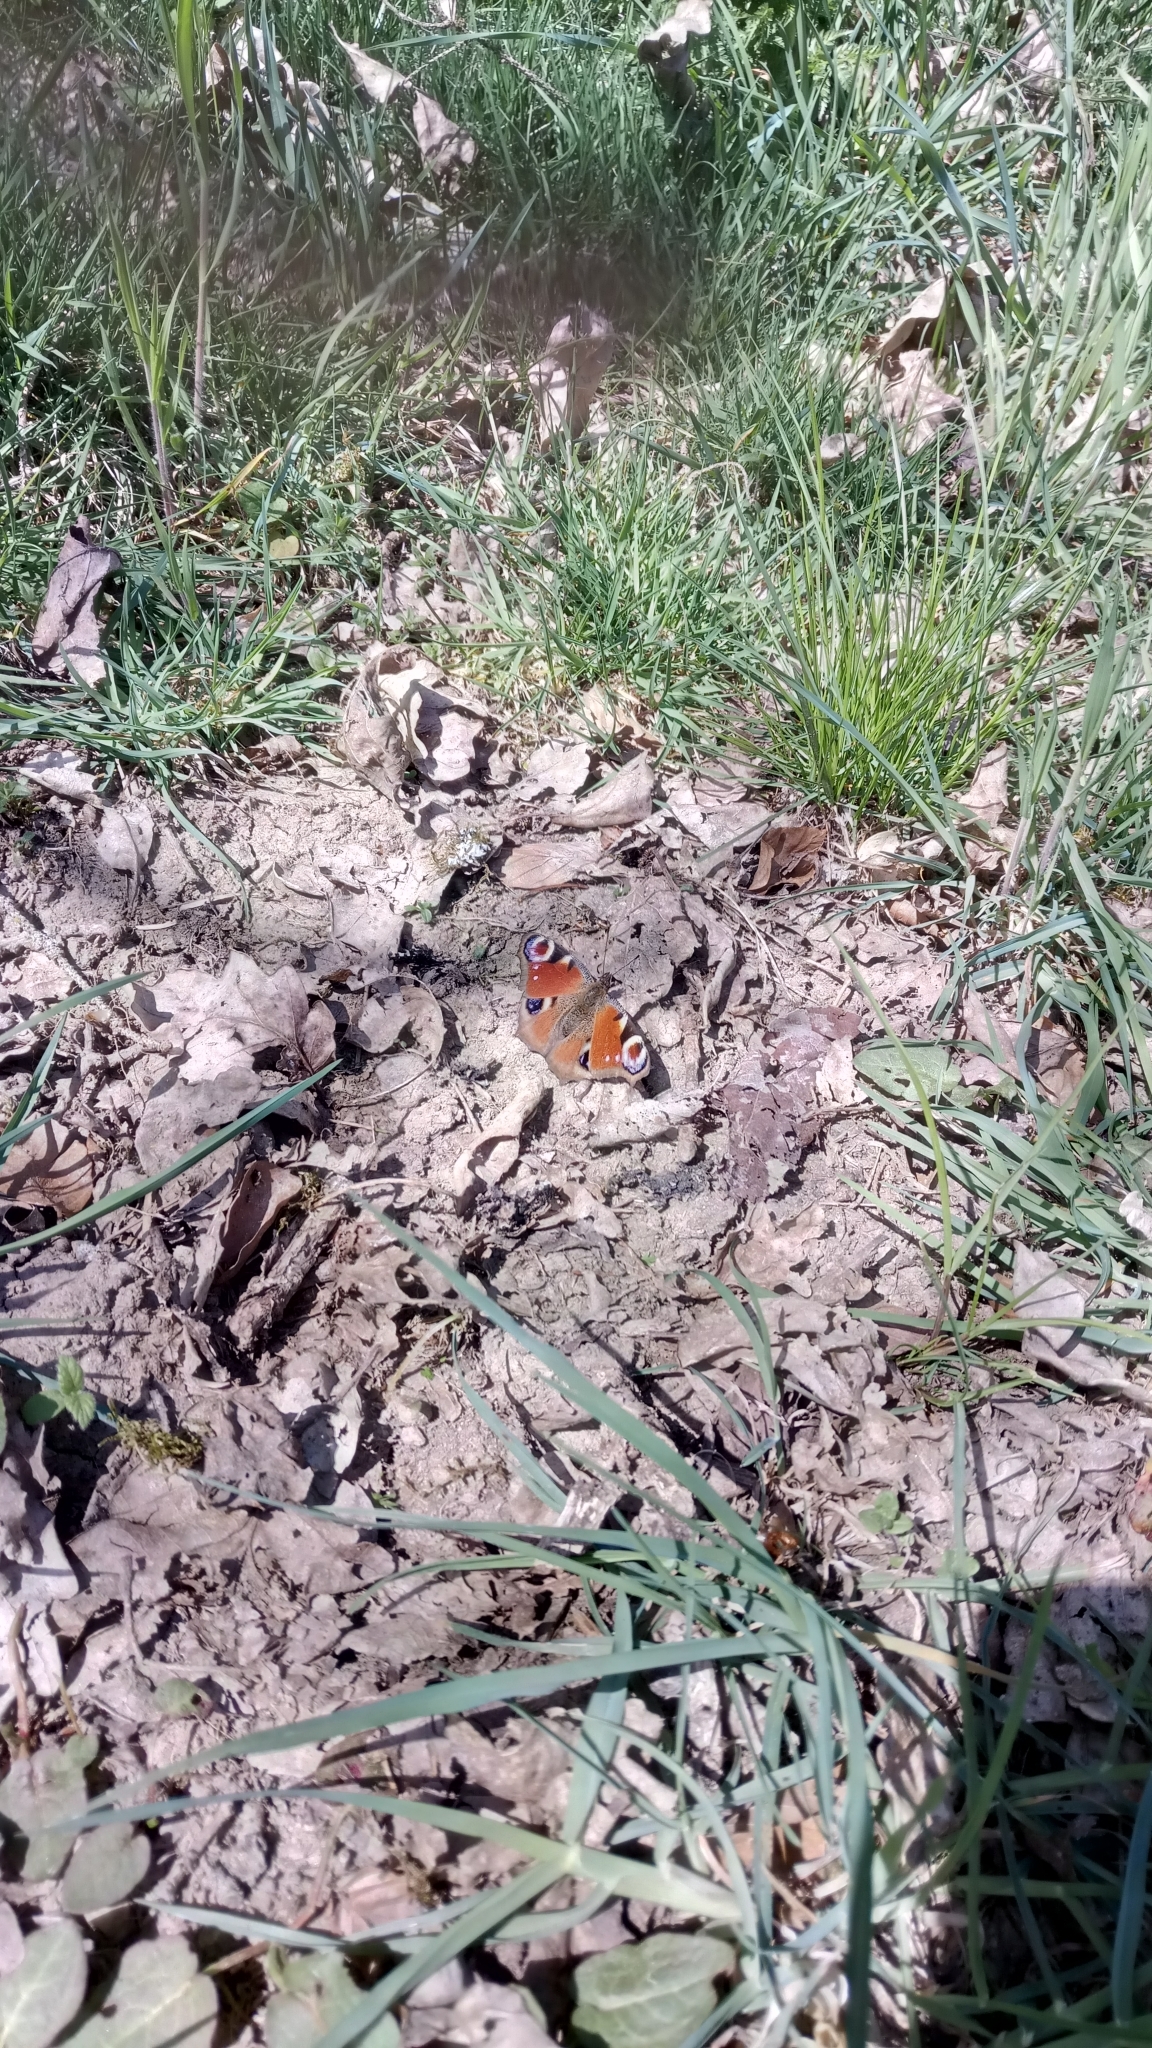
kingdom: Animalia
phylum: Arthropoda
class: Insecta
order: Lepidoptera
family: Nymphalidae
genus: Aglais
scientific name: Aglais io
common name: Peacock
